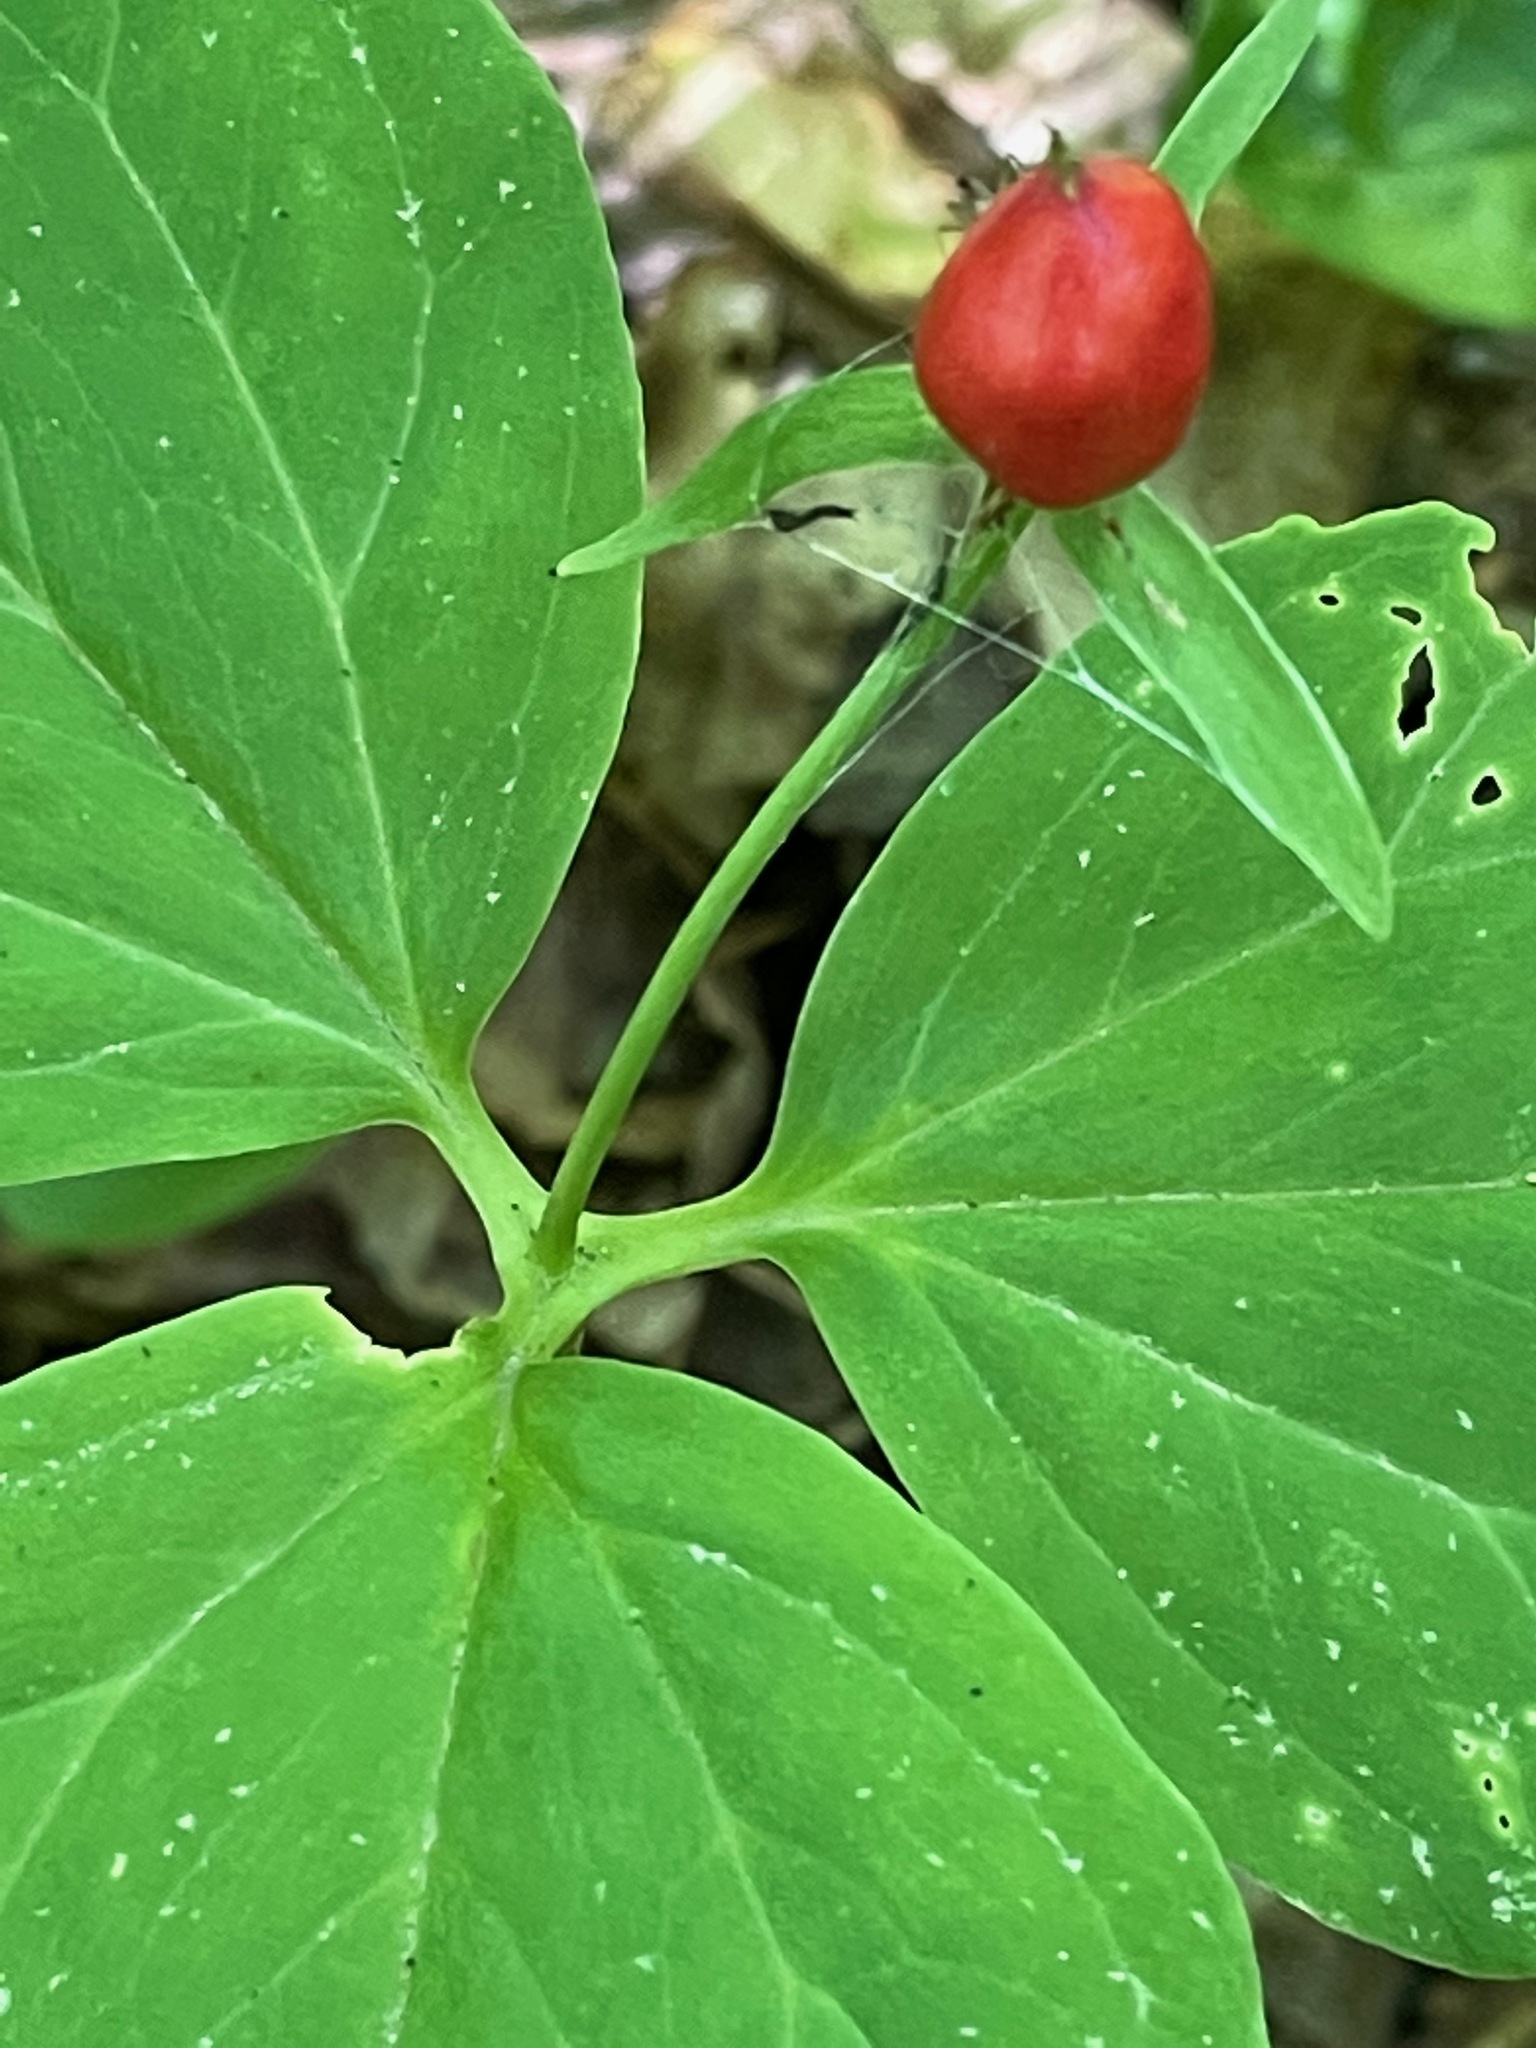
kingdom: Plantae
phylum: Tracheophyta
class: Liliopsida
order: Liliales
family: Melanthiaceae
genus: Trillium
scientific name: Trillium undulatum
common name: Paint trillium
